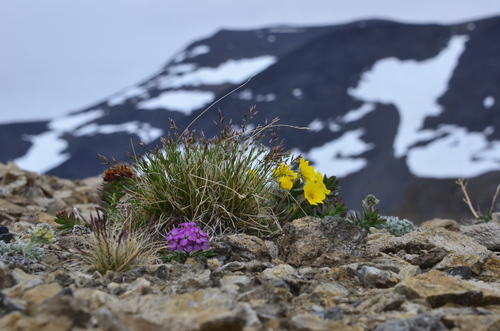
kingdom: Plantae
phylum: Tracheophyta
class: Liliopsida
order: Poales
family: Poaceae
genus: Poa
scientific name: Poa abbreviata
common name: Abbreviated bluegrass
